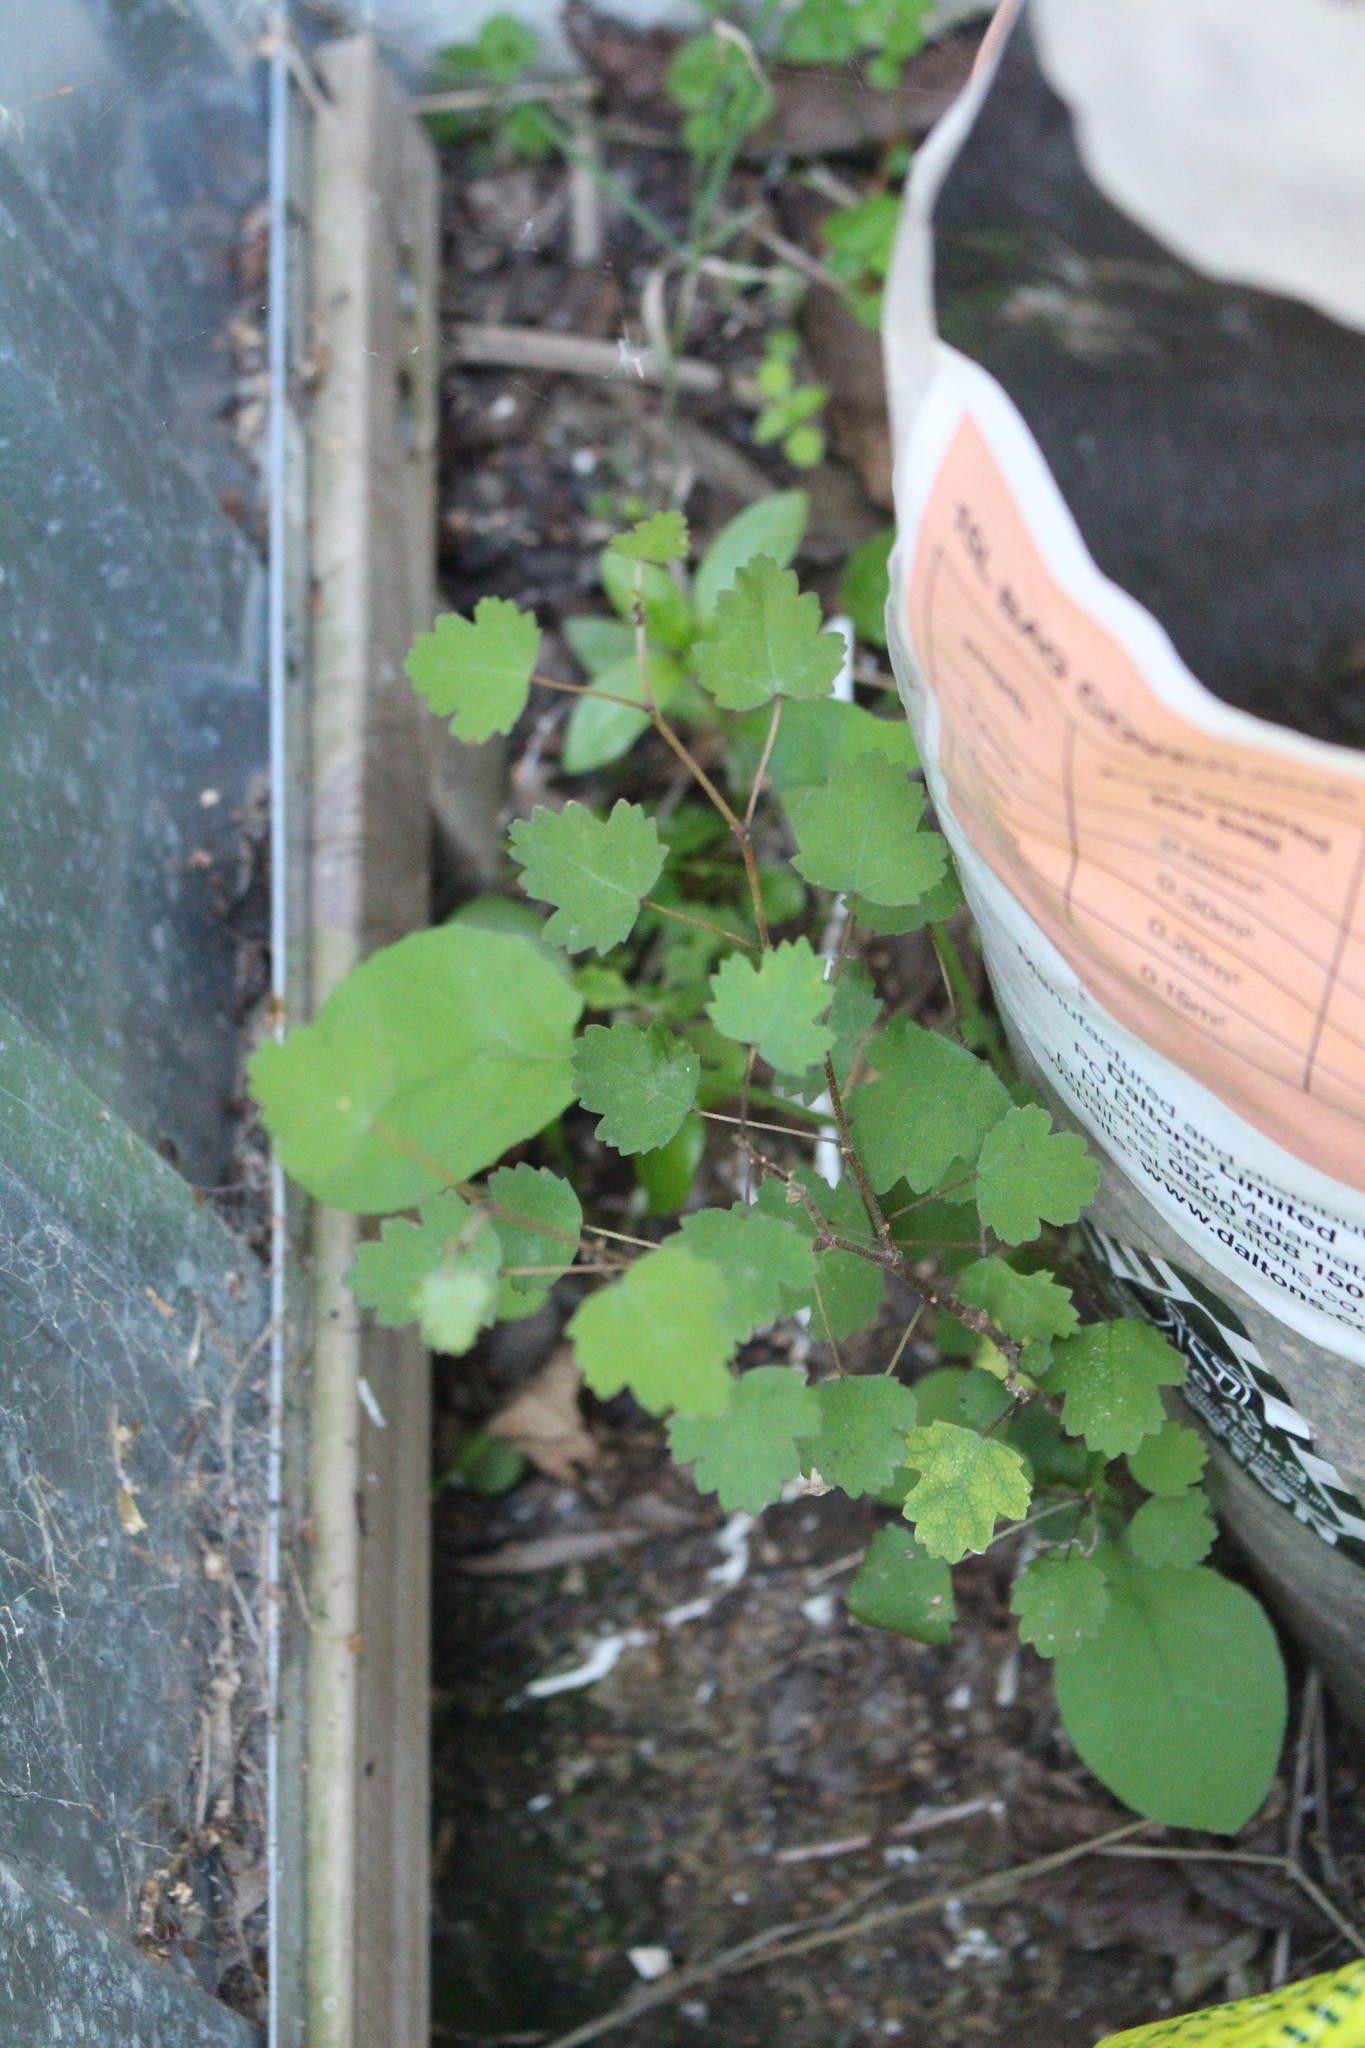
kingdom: Plantae
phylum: Tracheophyta
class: Magnoliopsida
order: Malvales
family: Malvaceae
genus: Plagianthus
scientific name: Plagianthus regius
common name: Manatu
